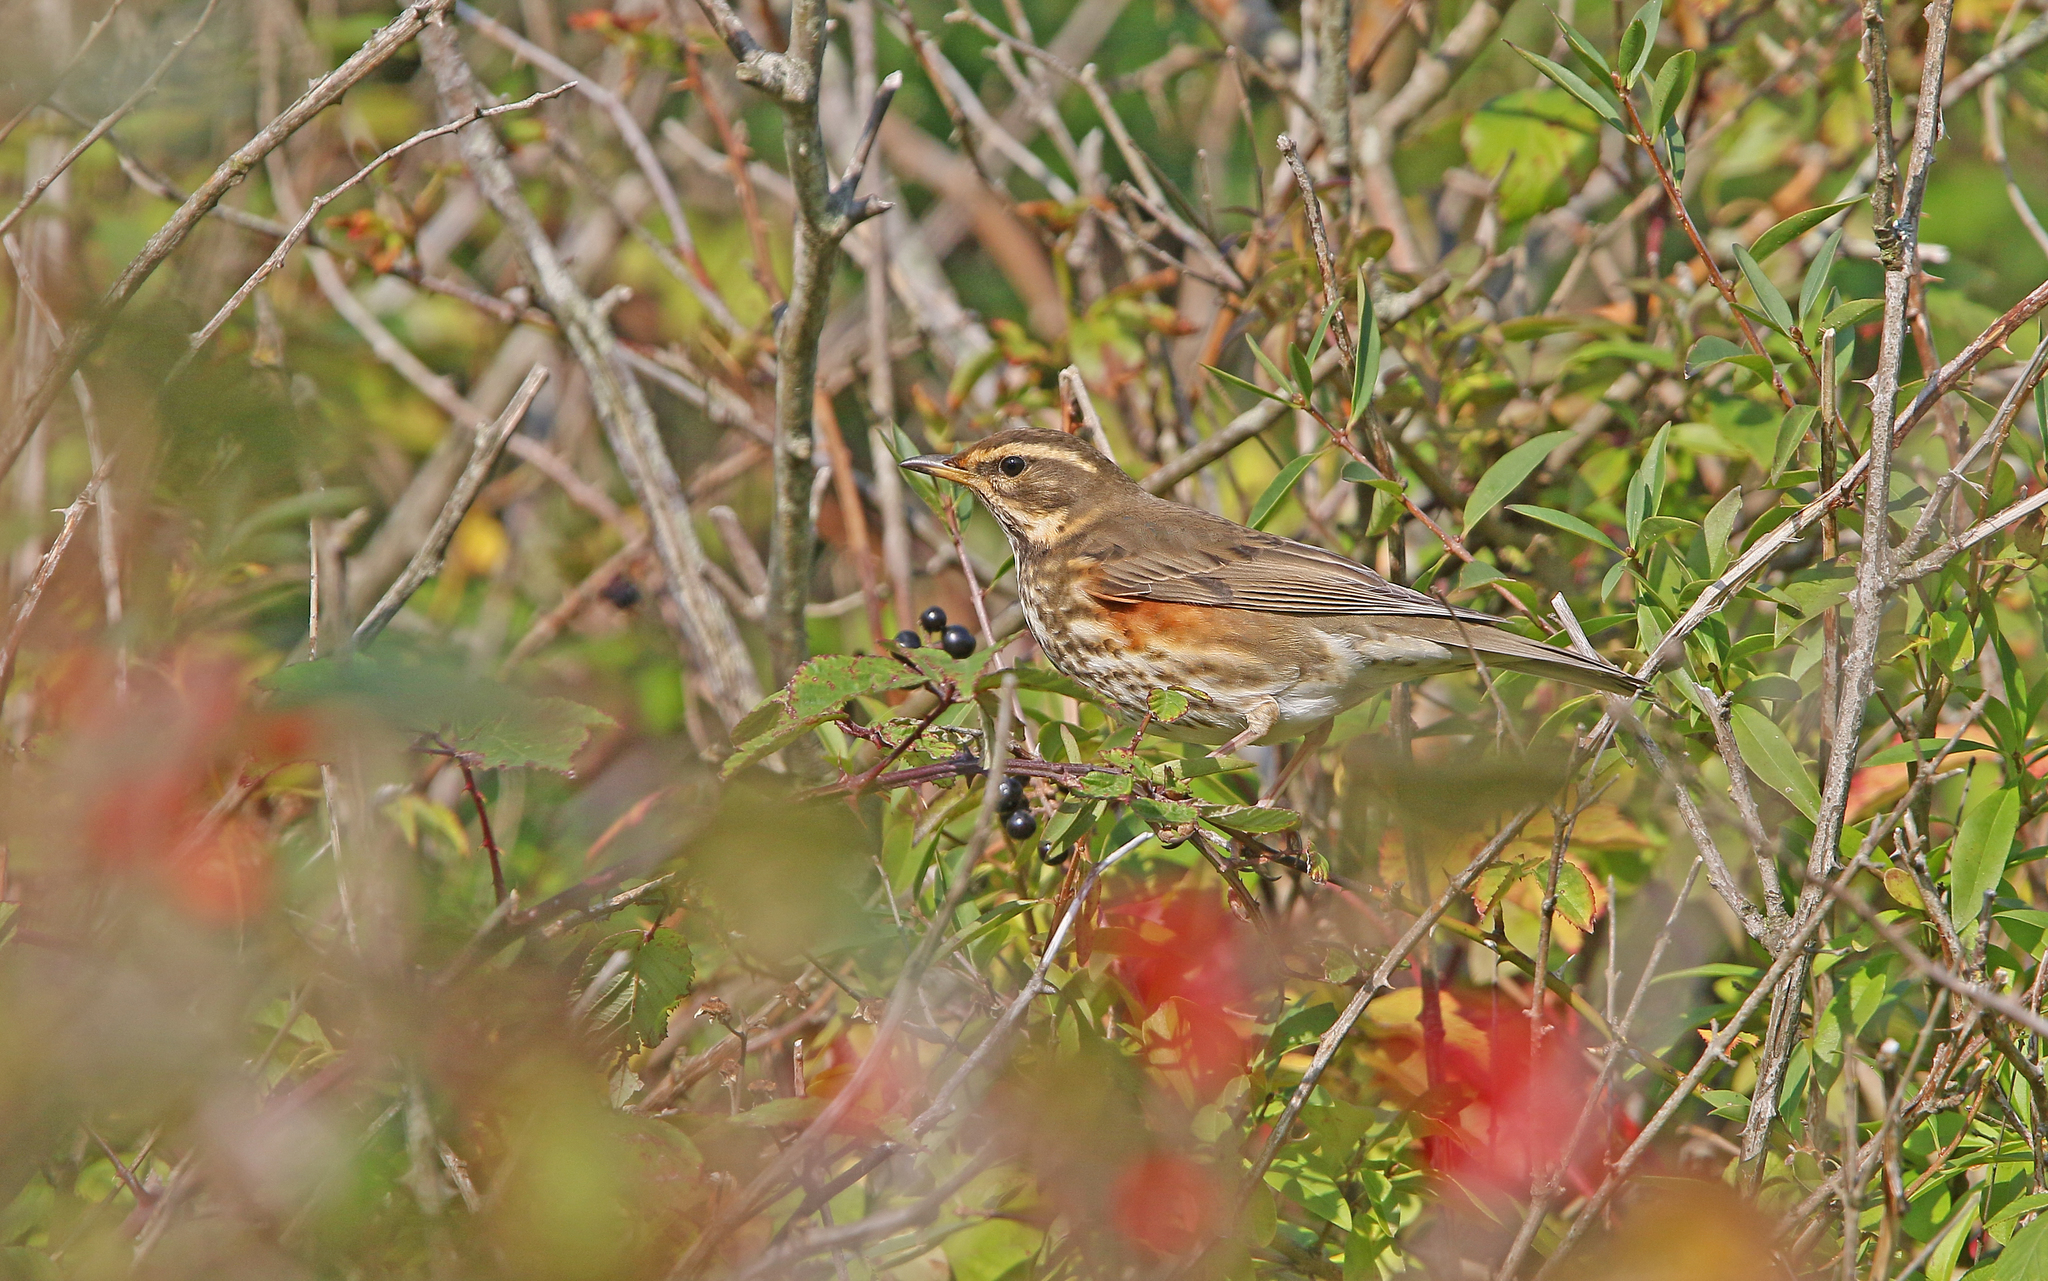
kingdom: Animalia
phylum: Chordata
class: Aves
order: Passeriformes
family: Turdidae
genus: Turdus
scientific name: Turdus iliacus
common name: Redwing
